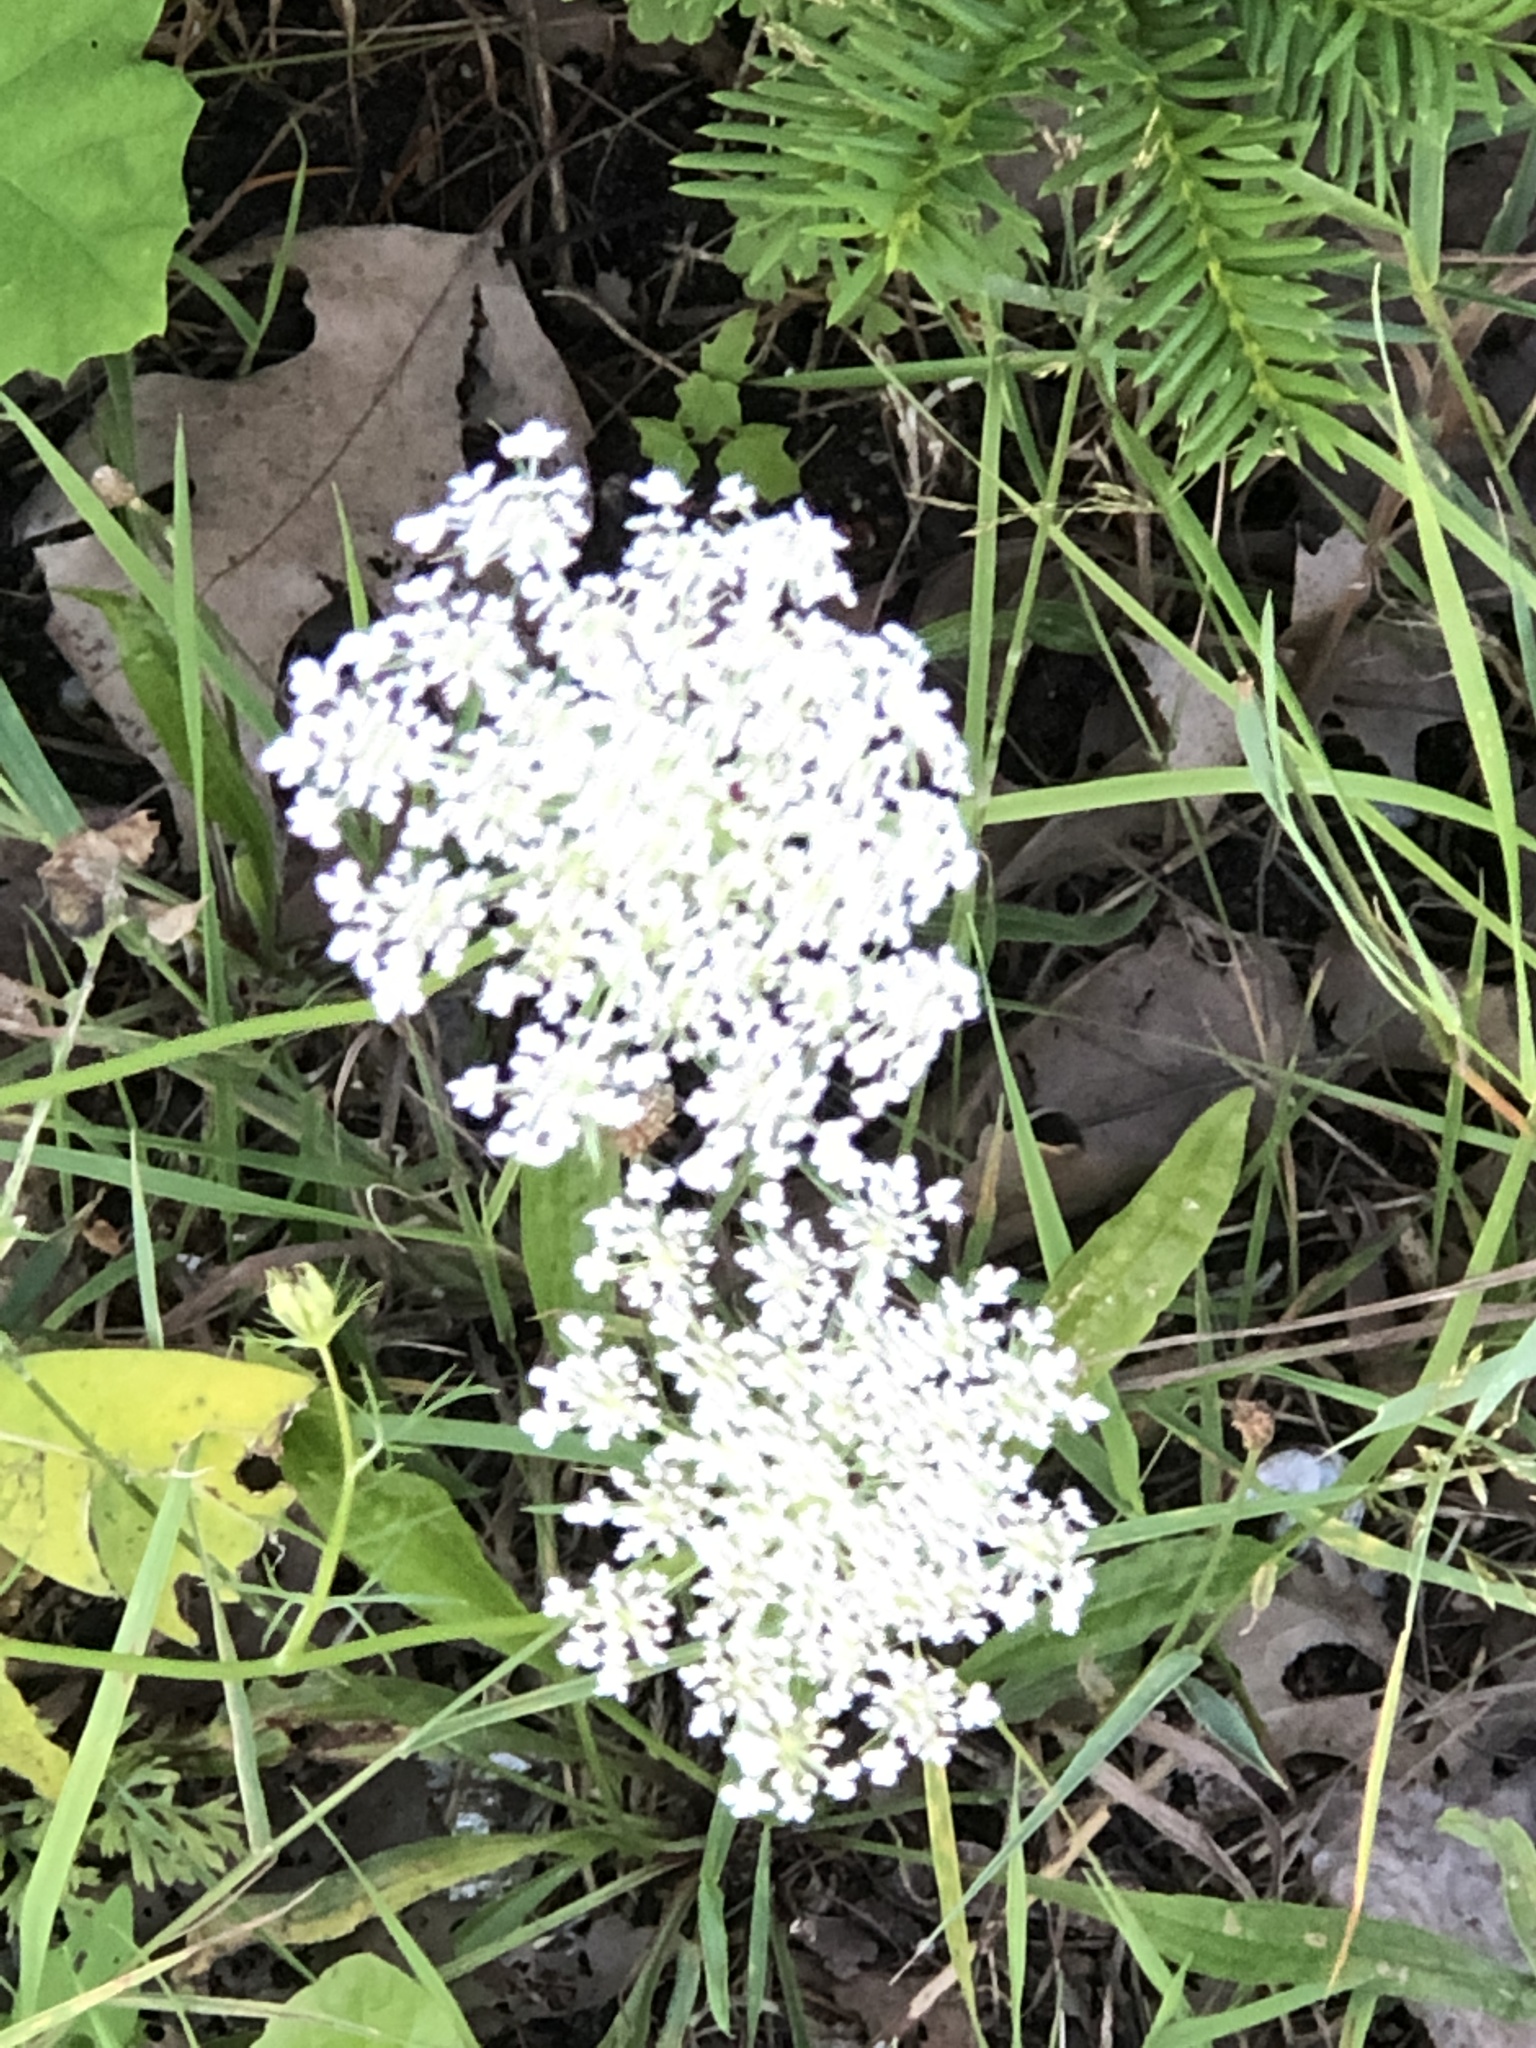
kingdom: Plantae
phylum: Tracheophyta
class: Magnoliopsida
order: Apiales
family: Apiaceae
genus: Daucus
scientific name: Daucus carota
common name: Wild carrot
